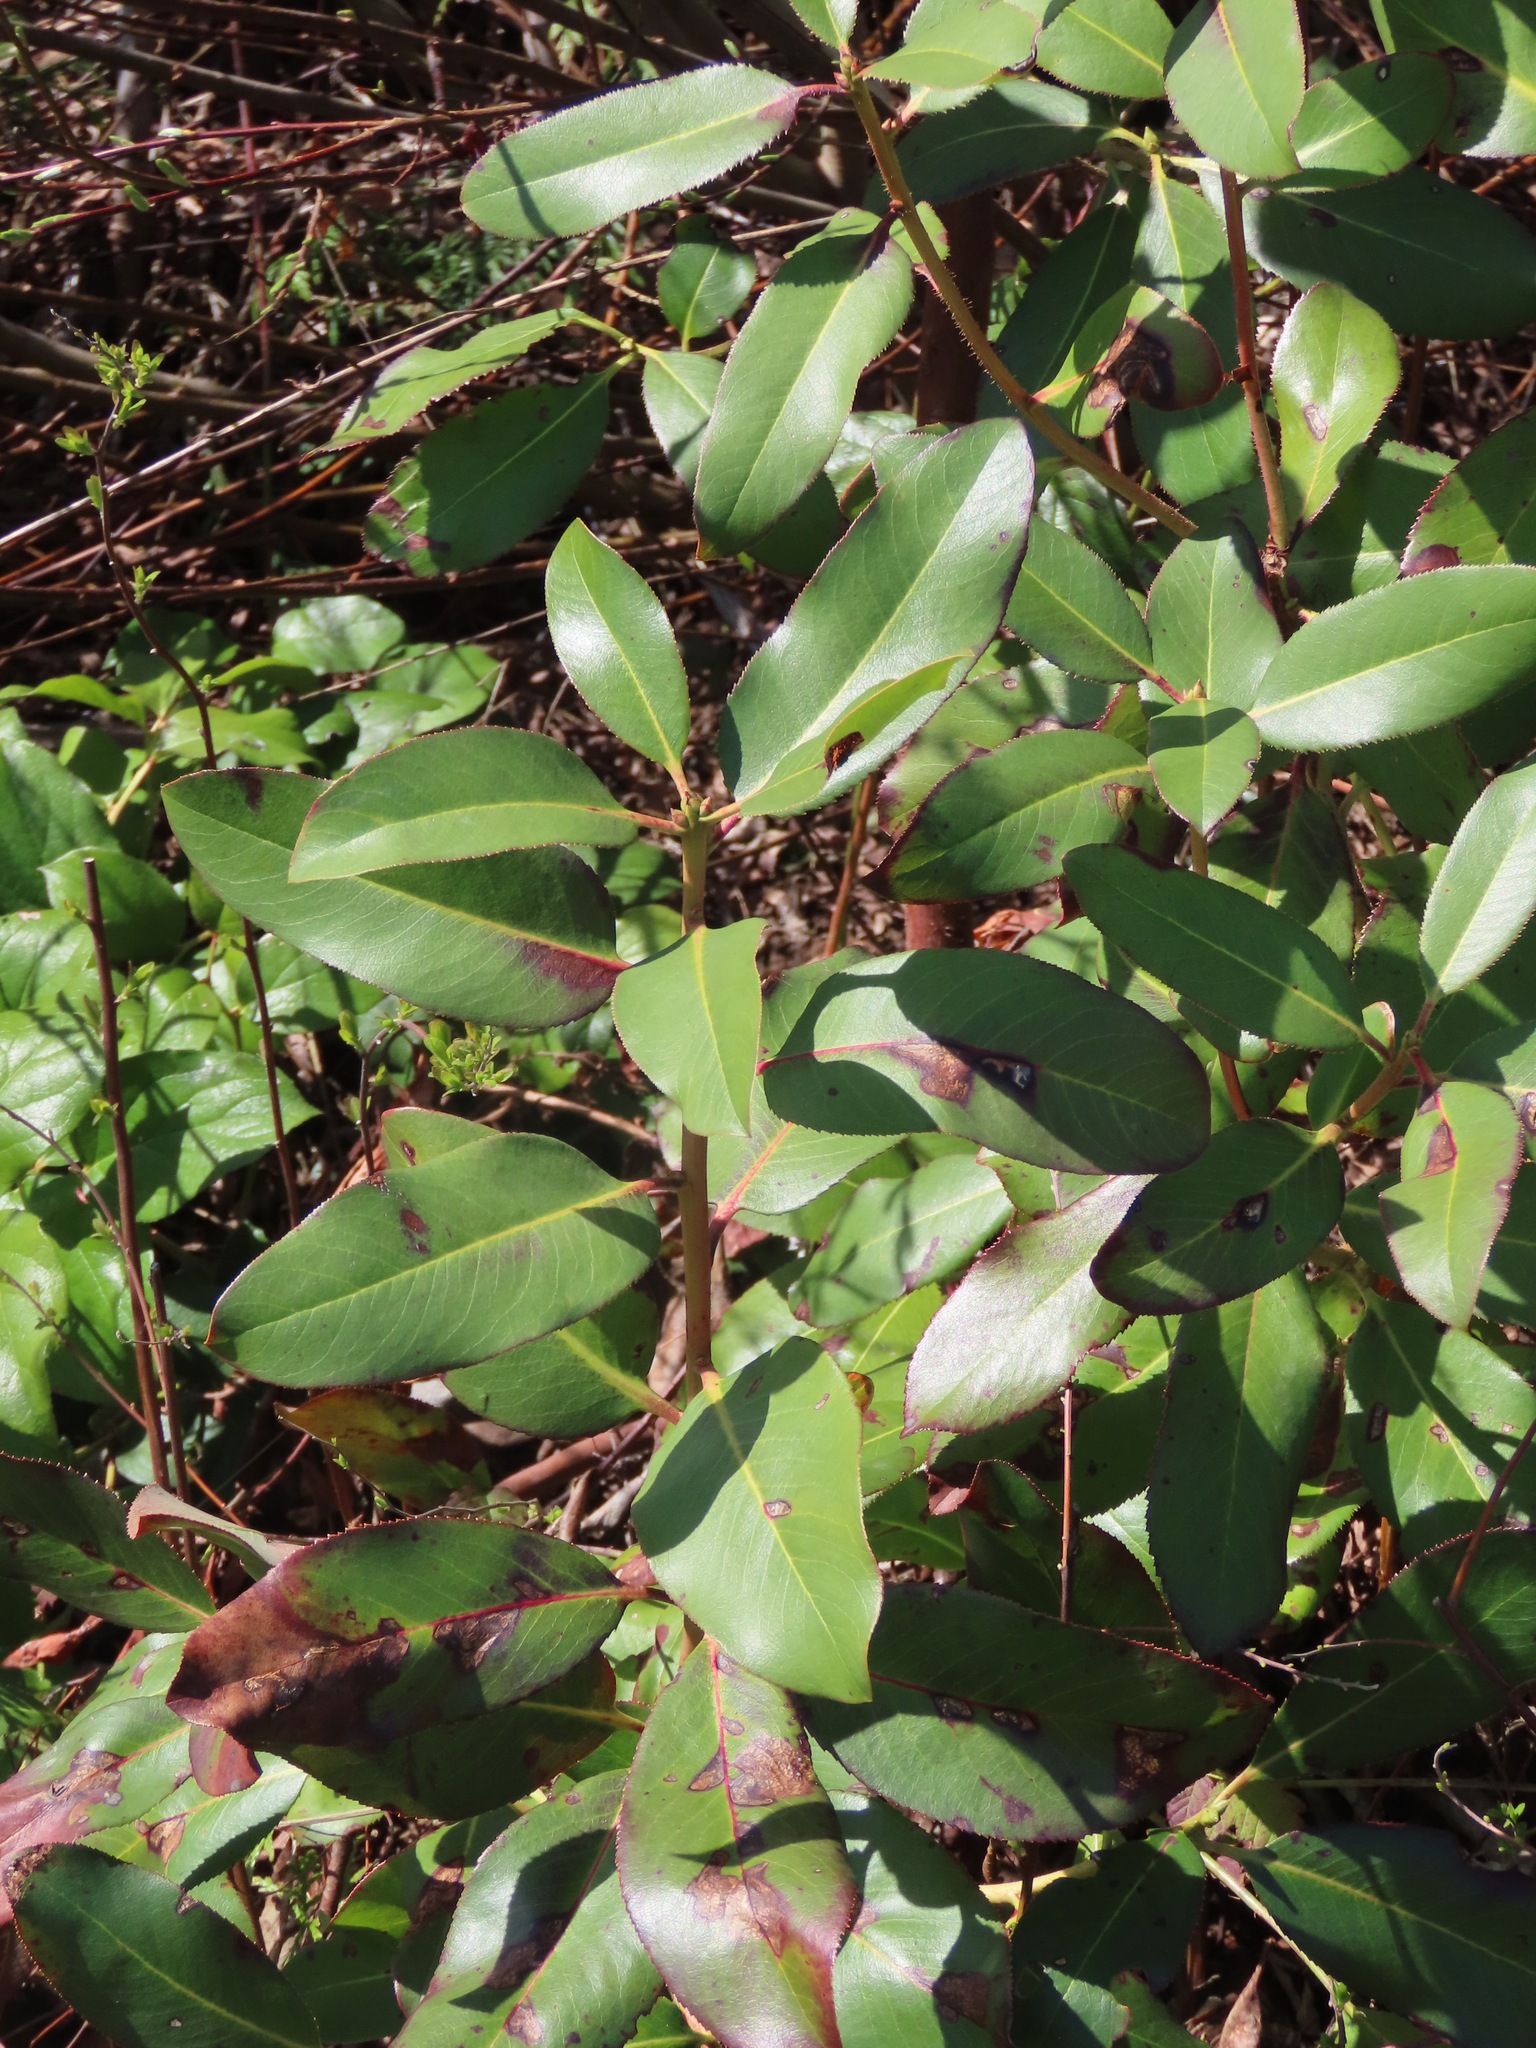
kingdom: Plantae
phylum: Tracheophyta
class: Magnoliopsida
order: Ericales
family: Ericaceae
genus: Arbutus
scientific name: Arbutus menziesii
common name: Pacific madrone
